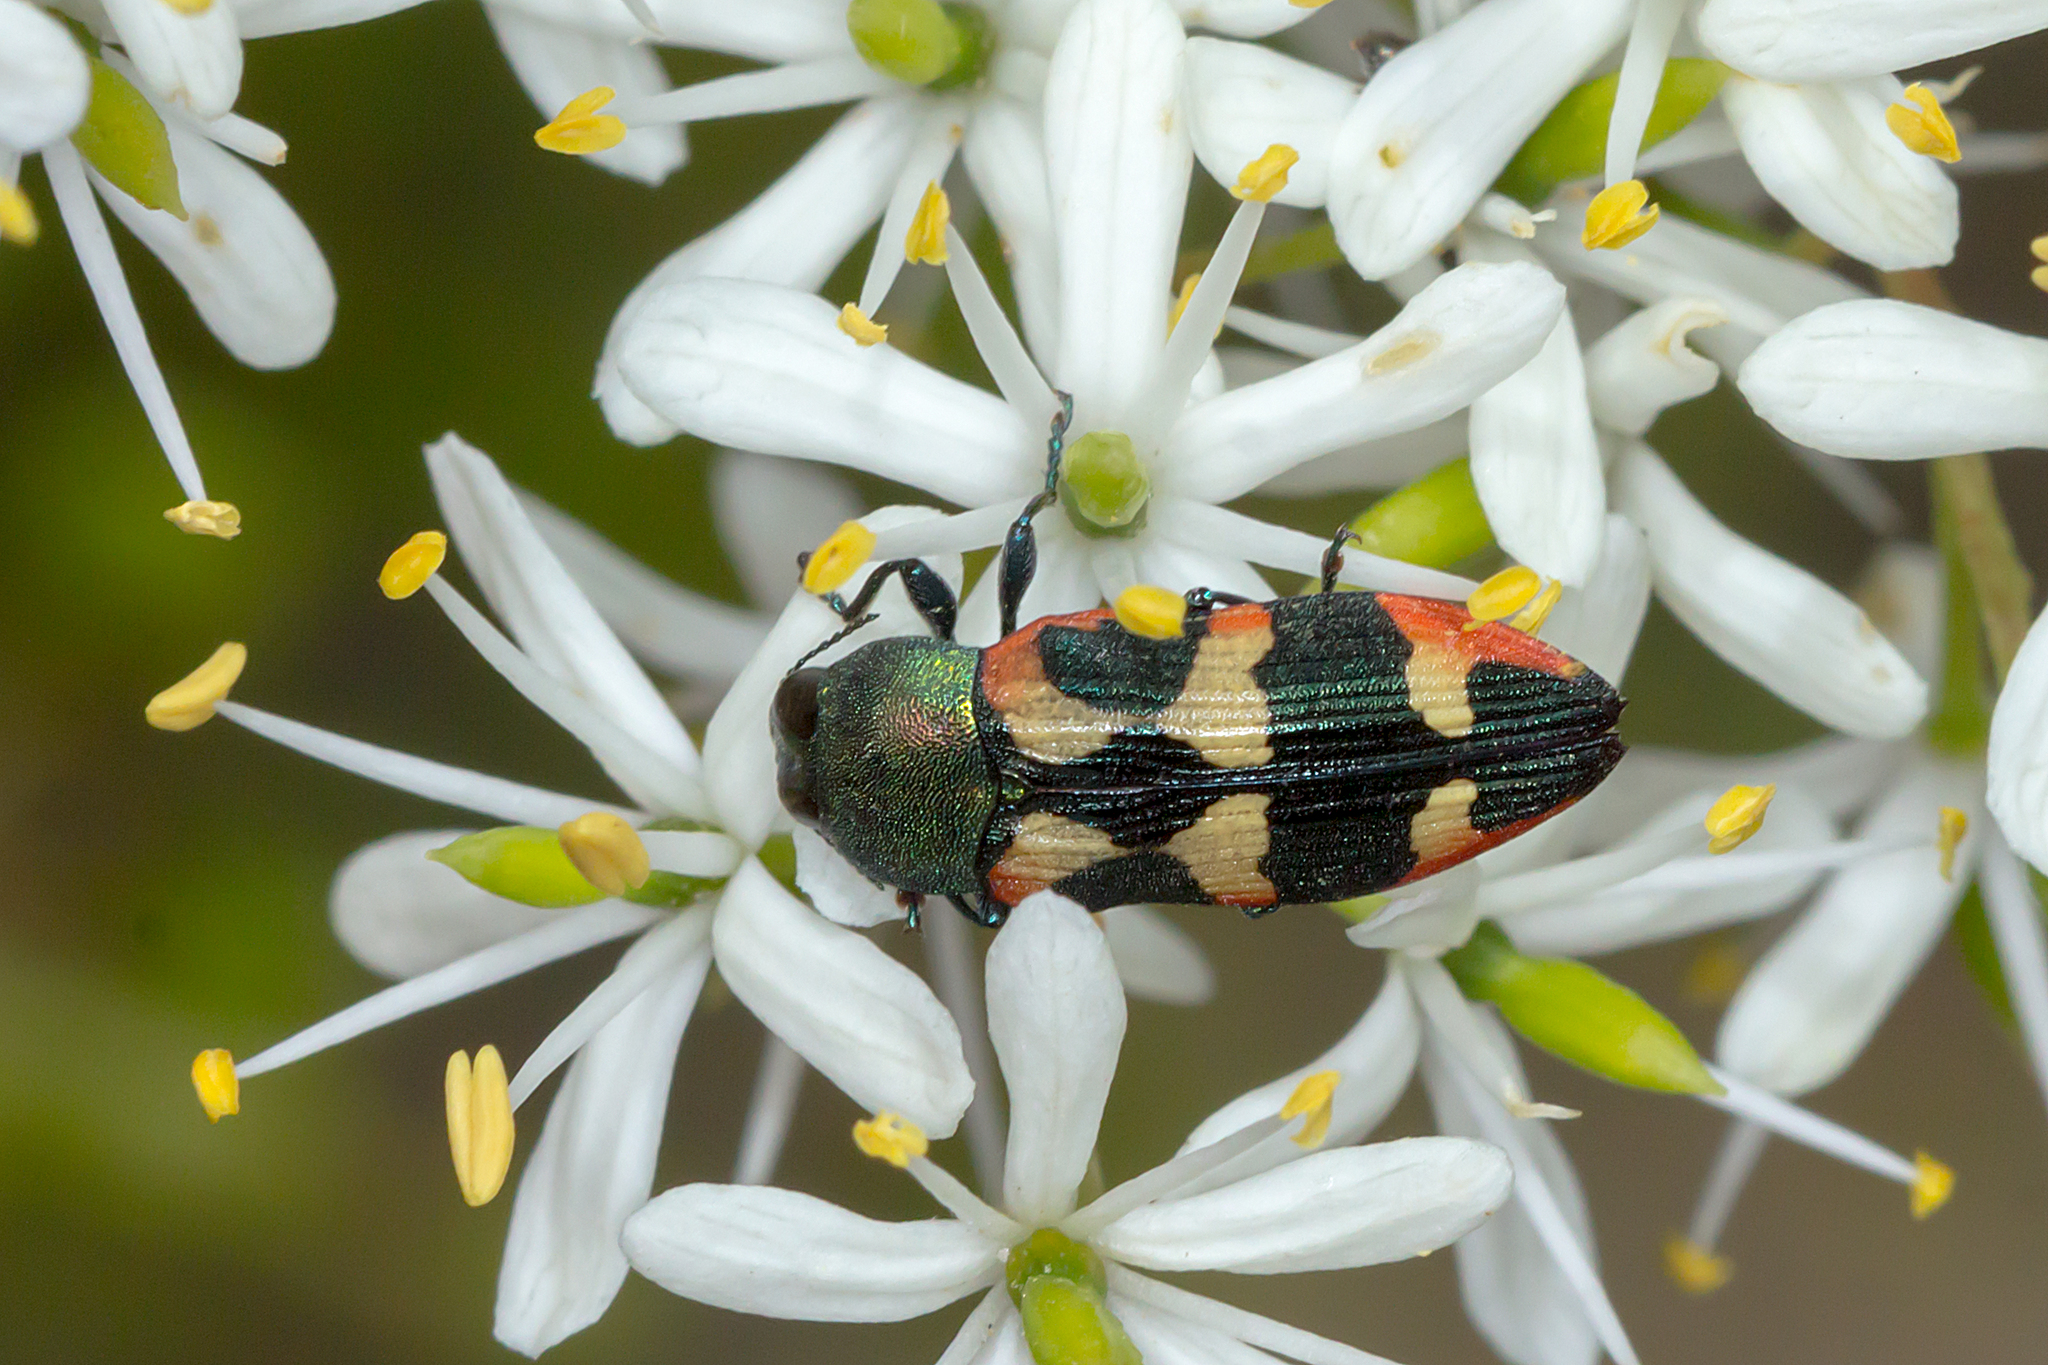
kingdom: Animalia
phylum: Arthropoda
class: Insecta
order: Coleoptera
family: Buprestidae
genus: Castiarina
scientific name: Castiarina sexplagiata
